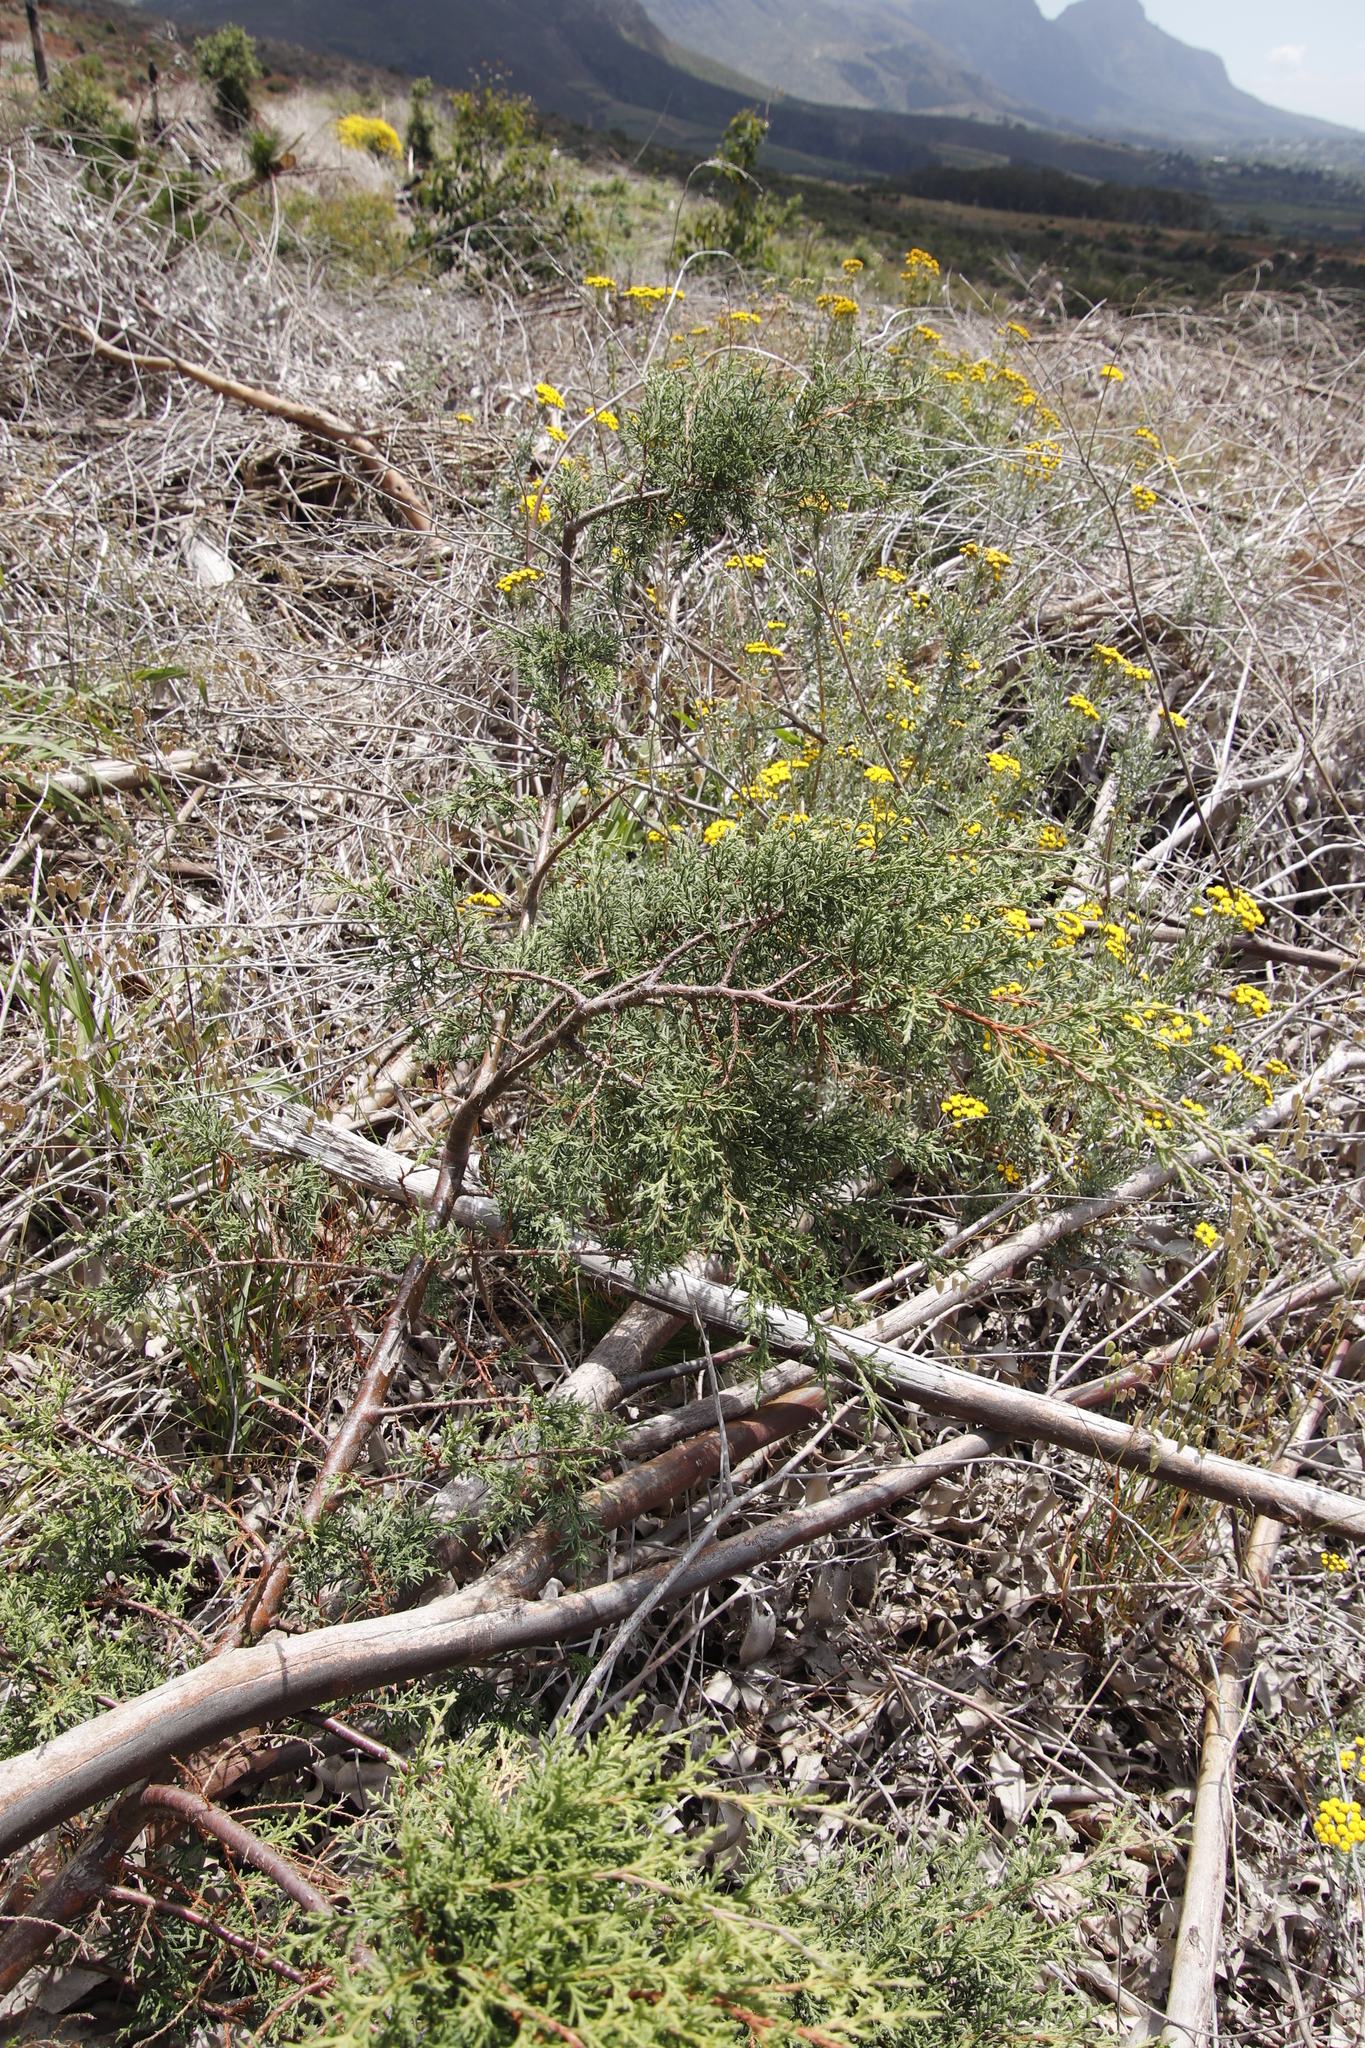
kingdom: Plantae
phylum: Tracheophyta
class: Pinopsida
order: Pinales
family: Cupressaceae
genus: Cupressus
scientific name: Cupressus lusitanica
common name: Mexican cypress
